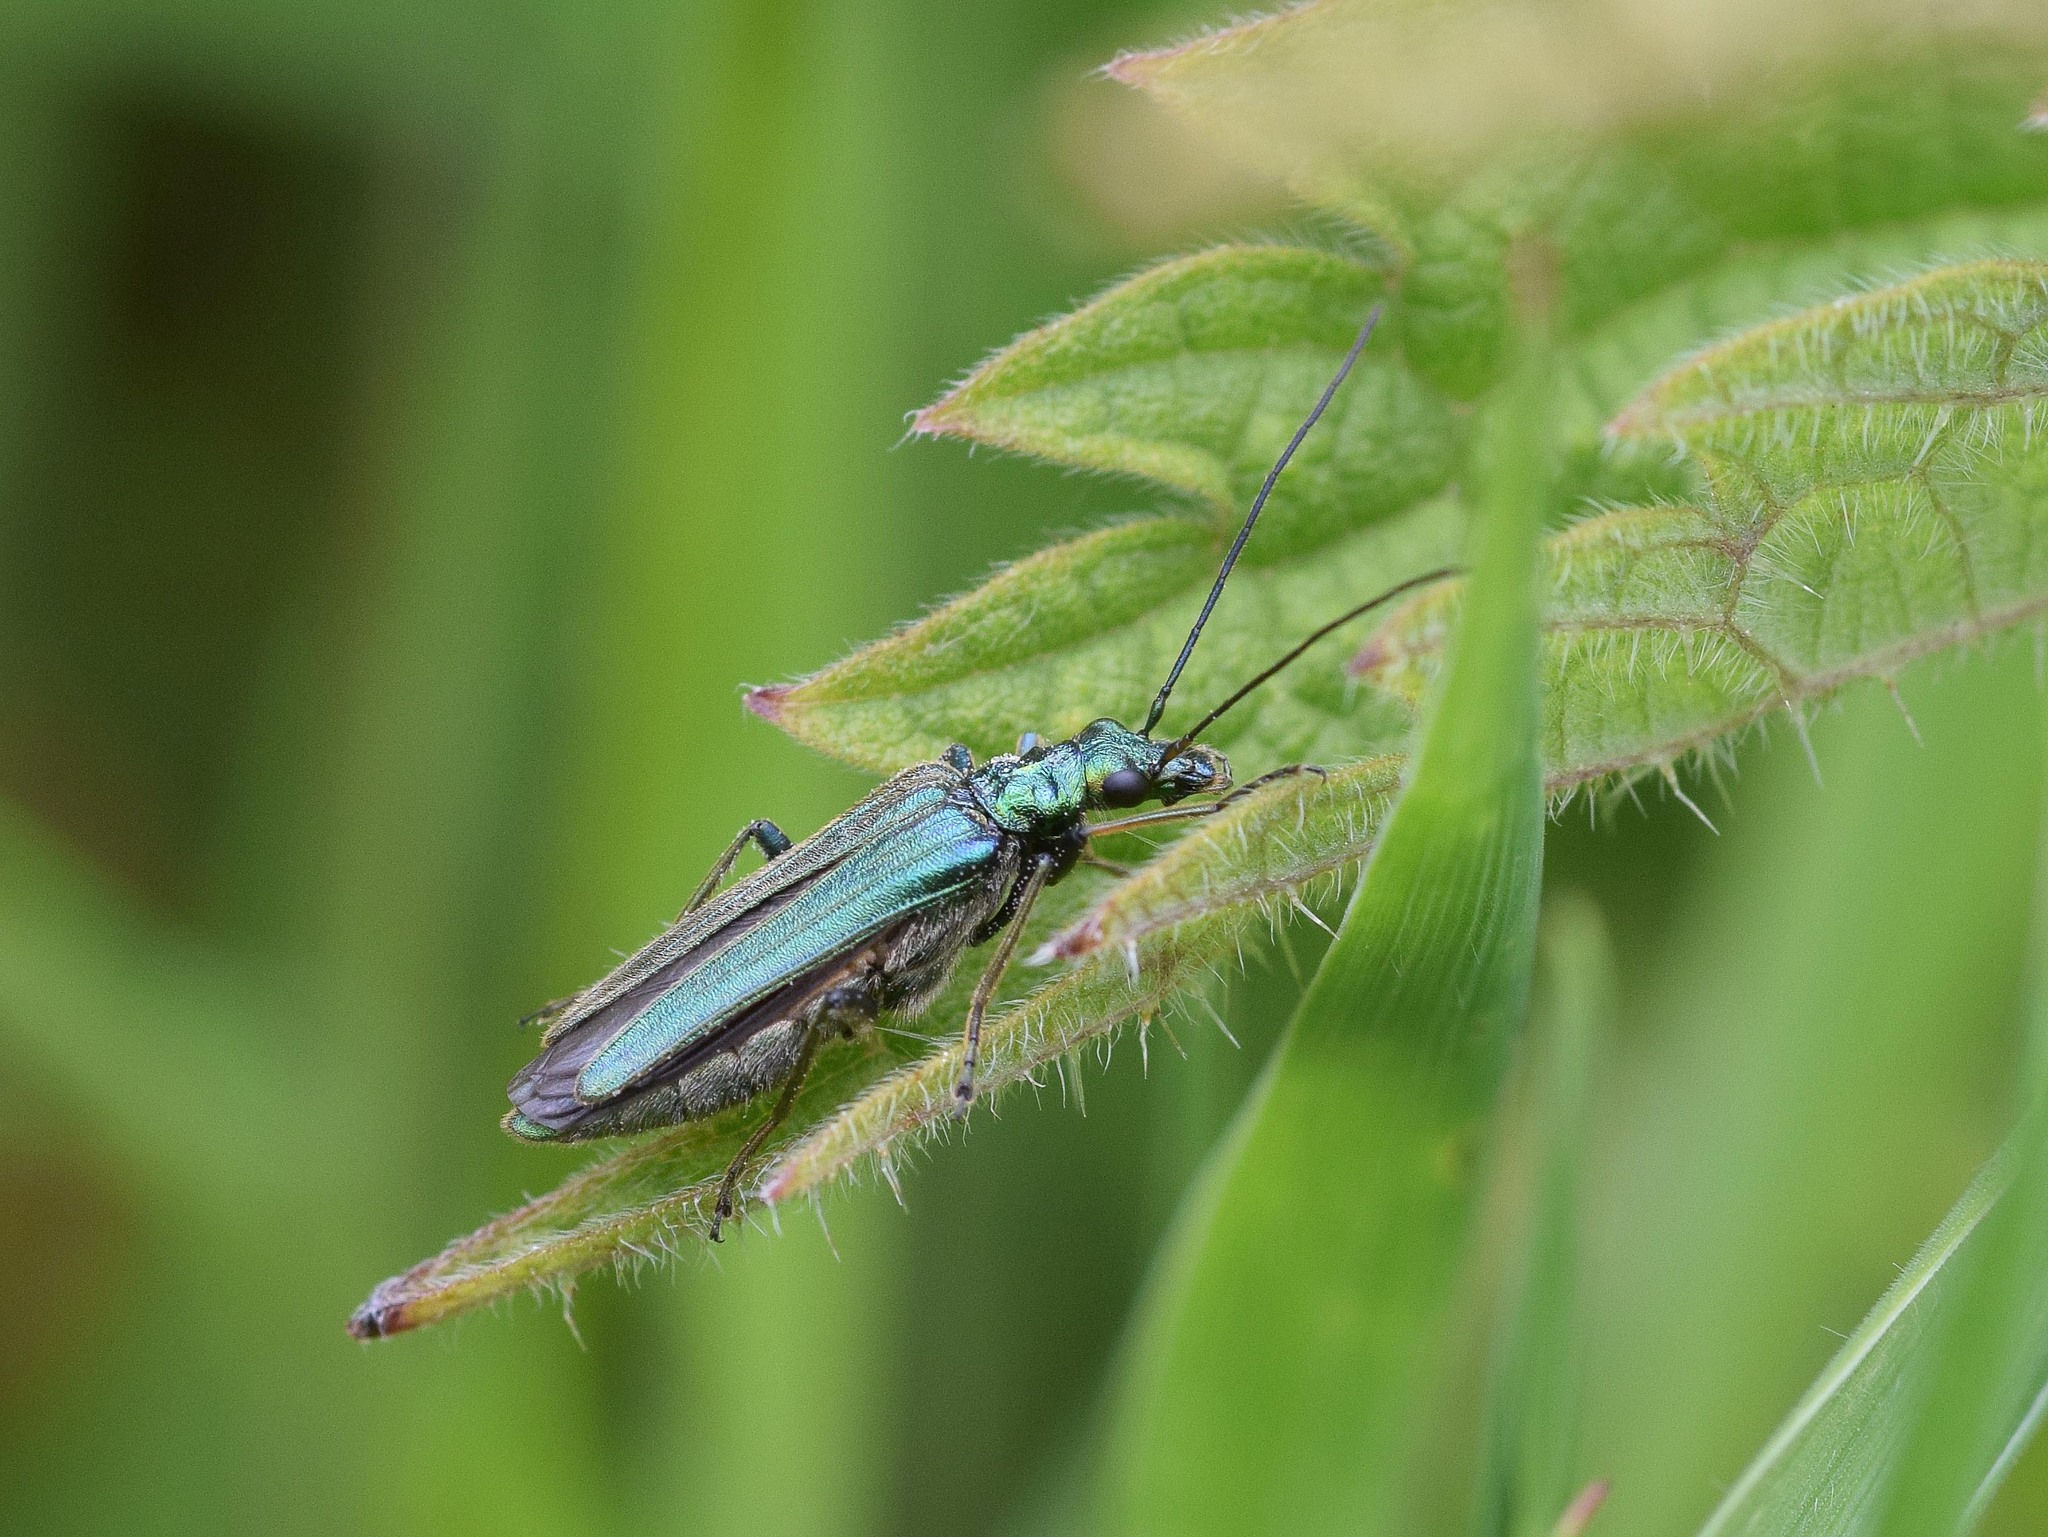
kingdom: Animalia
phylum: Arthropoda
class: Insecta
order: Coleoptera
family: Oedemeridae
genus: Oedemera
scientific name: Oedemera nobilis
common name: Swollen-thighed beetle
